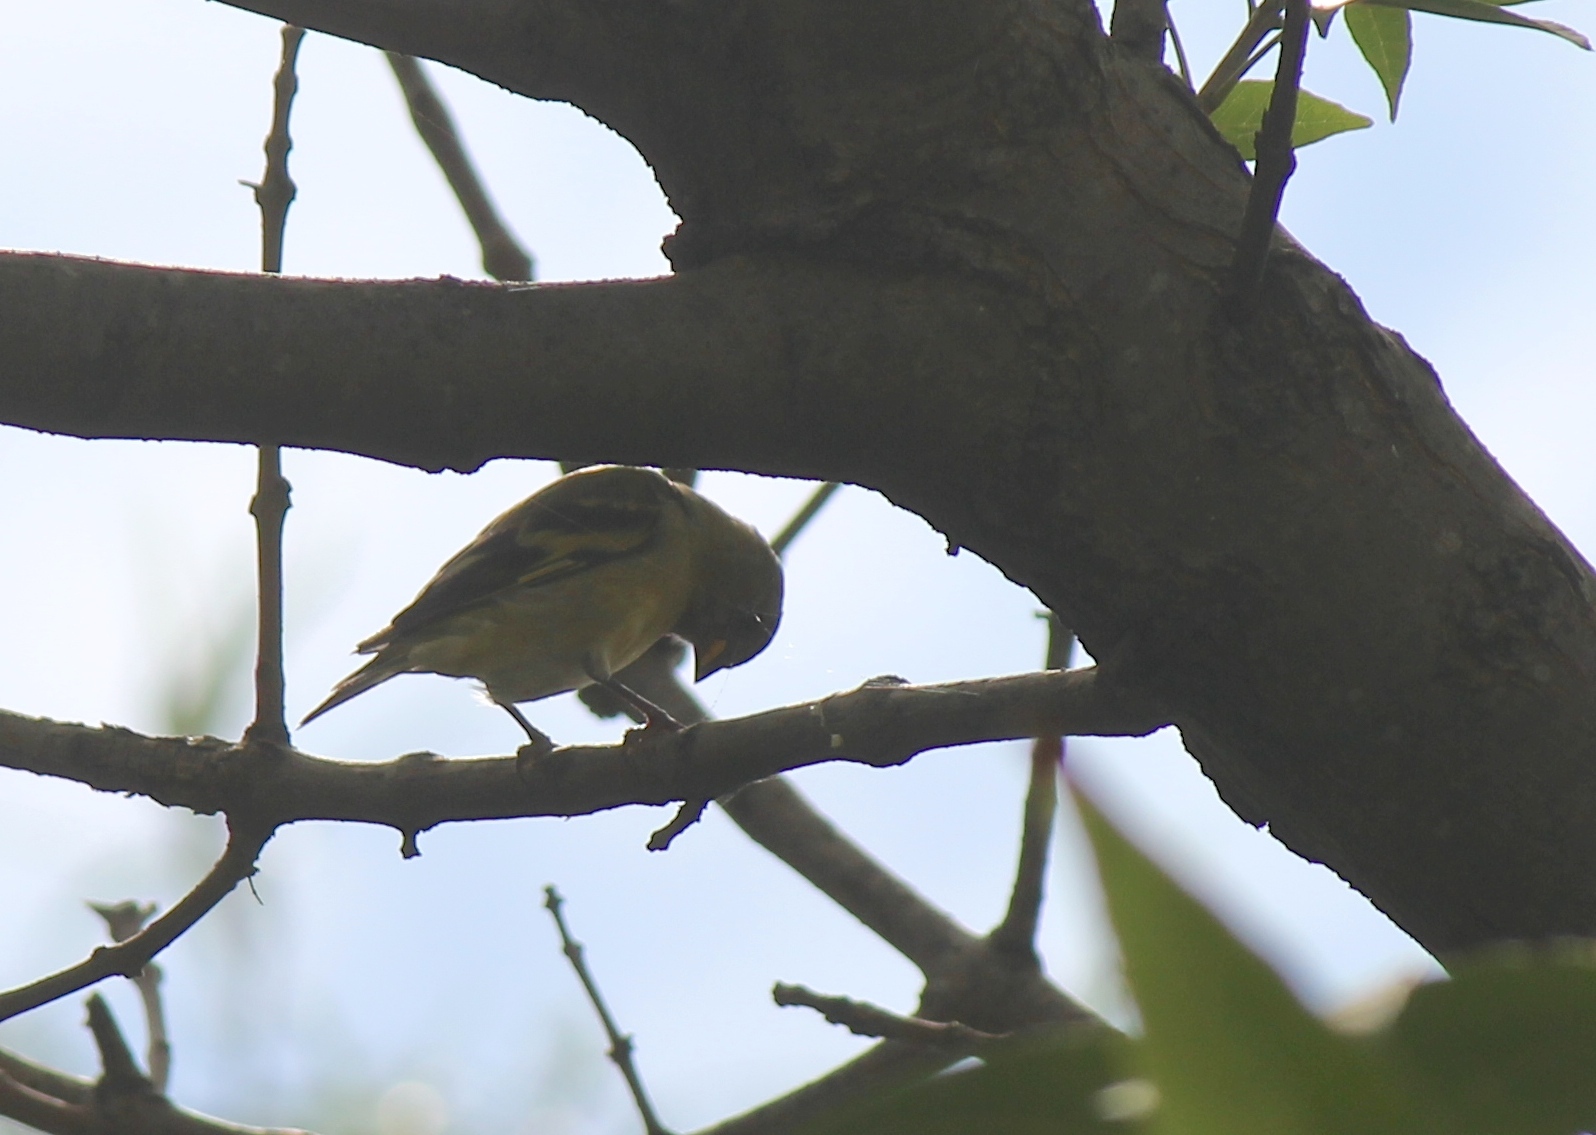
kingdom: Animalia
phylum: Chordata
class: Aves
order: Passeriformes
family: Fringillidae
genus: Spinus
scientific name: Spinus magellanicus
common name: Hooded siskin
